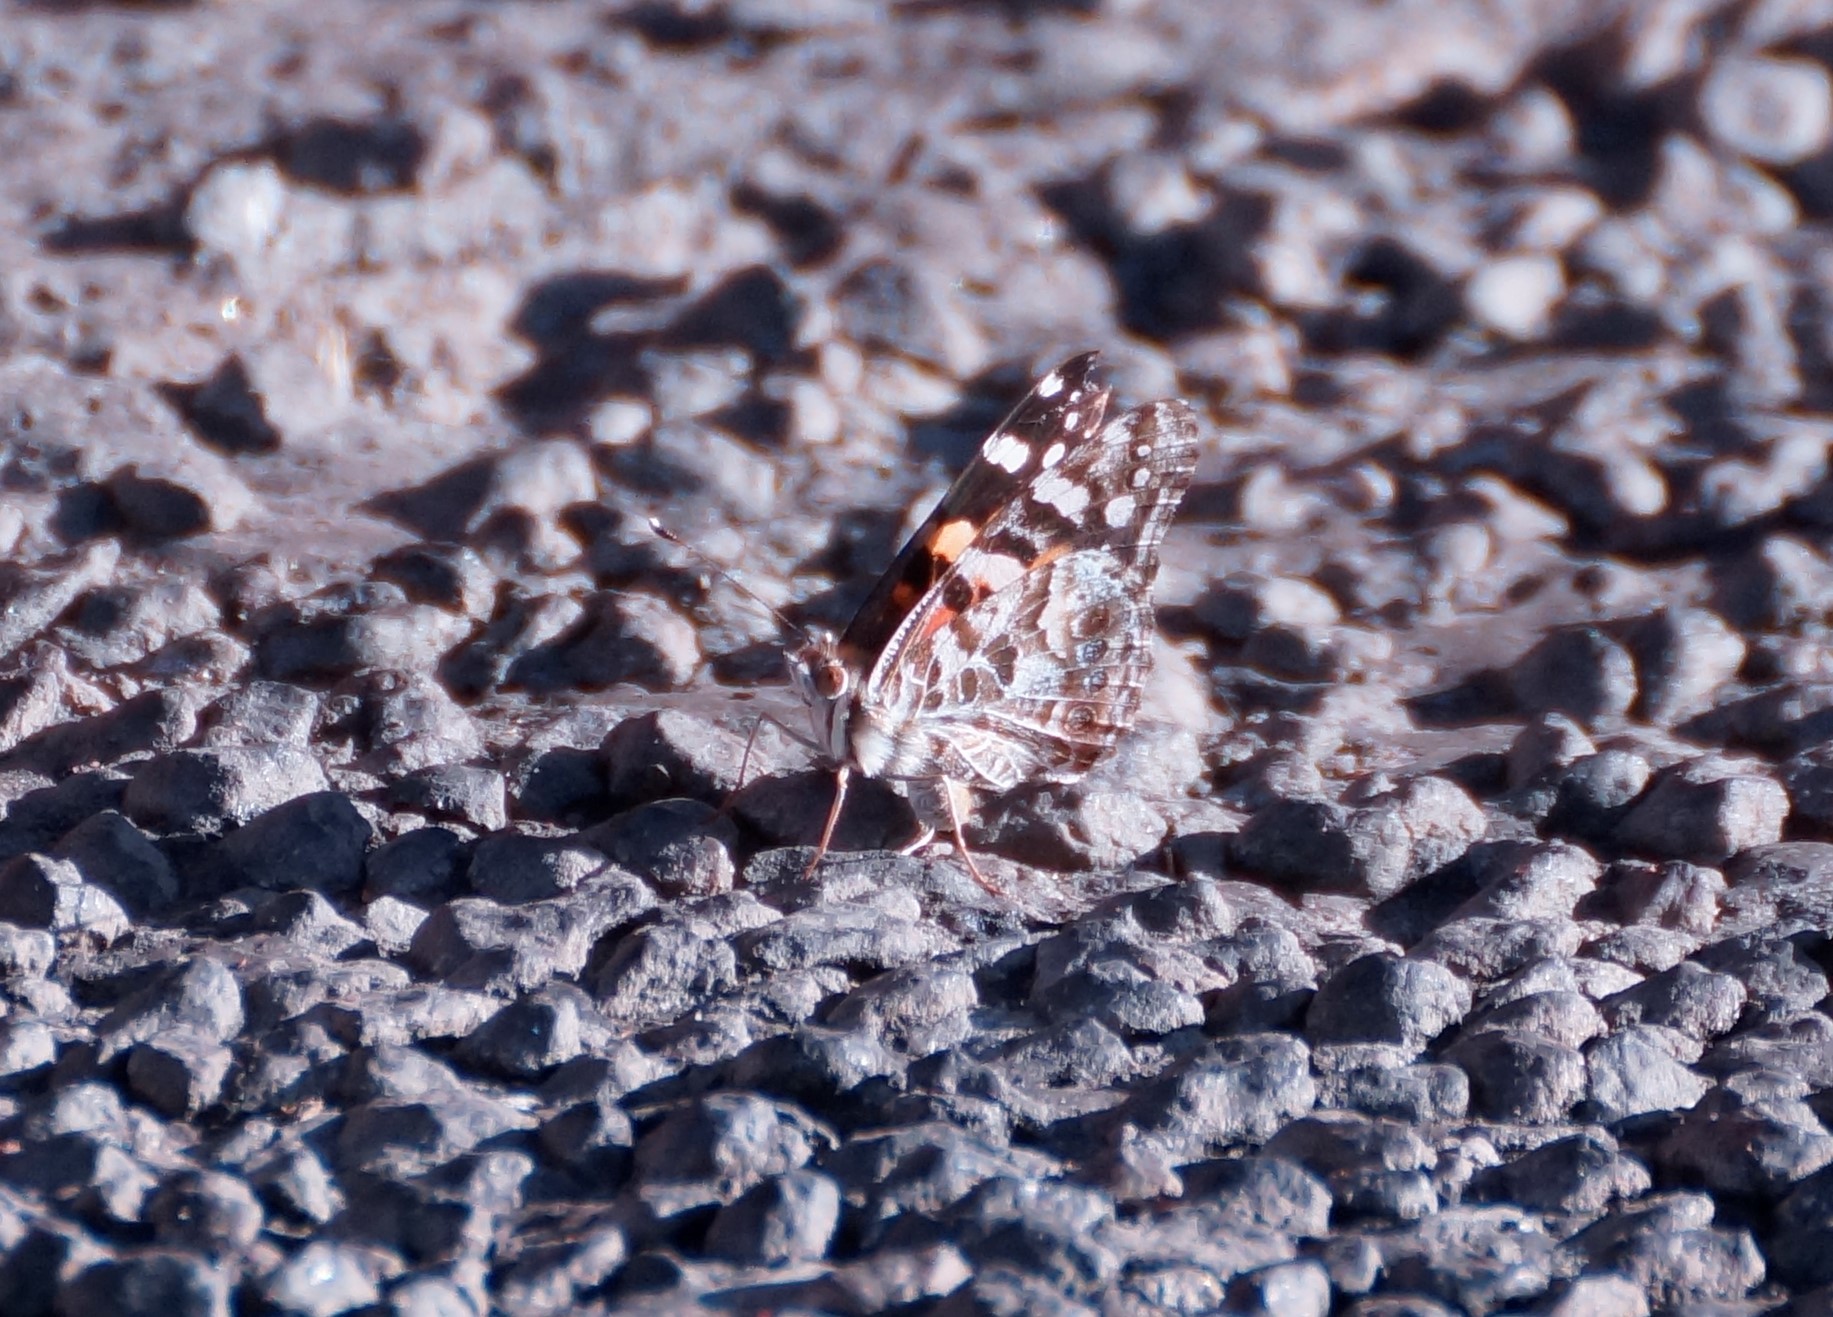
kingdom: Animalia
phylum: Arthropoda
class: Insecta
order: Lepidoptera
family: Nymphalidae
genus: Vanessa
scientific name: Vanessa kershawi
